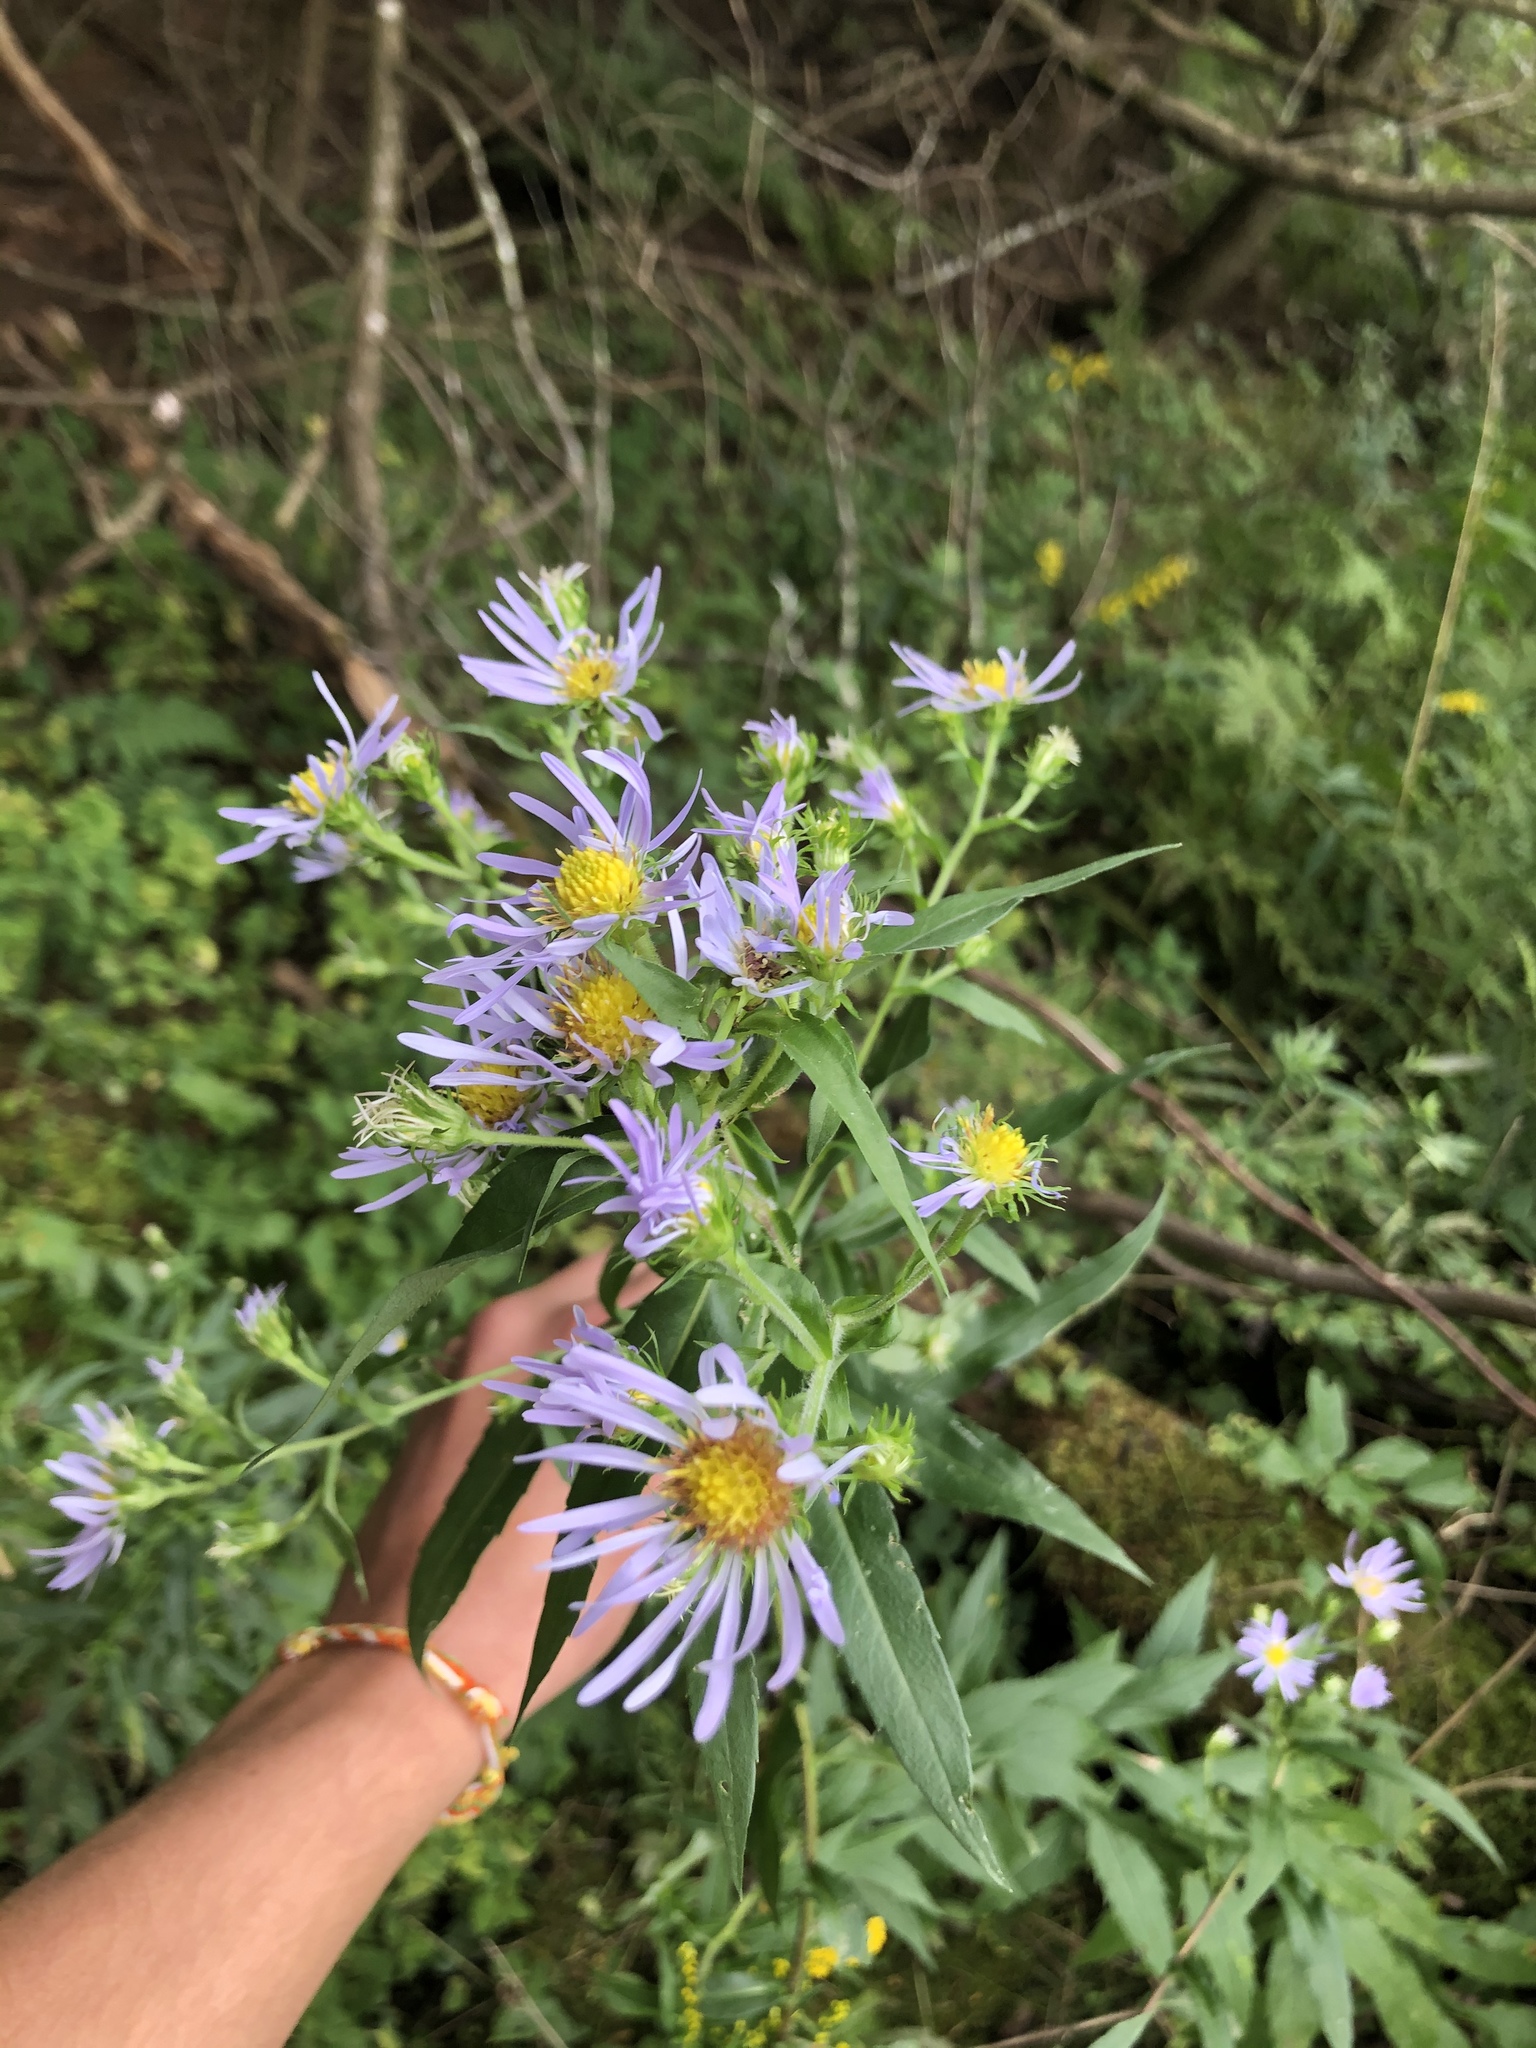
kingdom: Plantae
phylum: Tracheophyta
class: Magnoliopsida
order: Asterales
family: Asteraceae
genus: Symphyotrichum
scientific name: Symphyotrichum puniceum
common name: Bog aster
